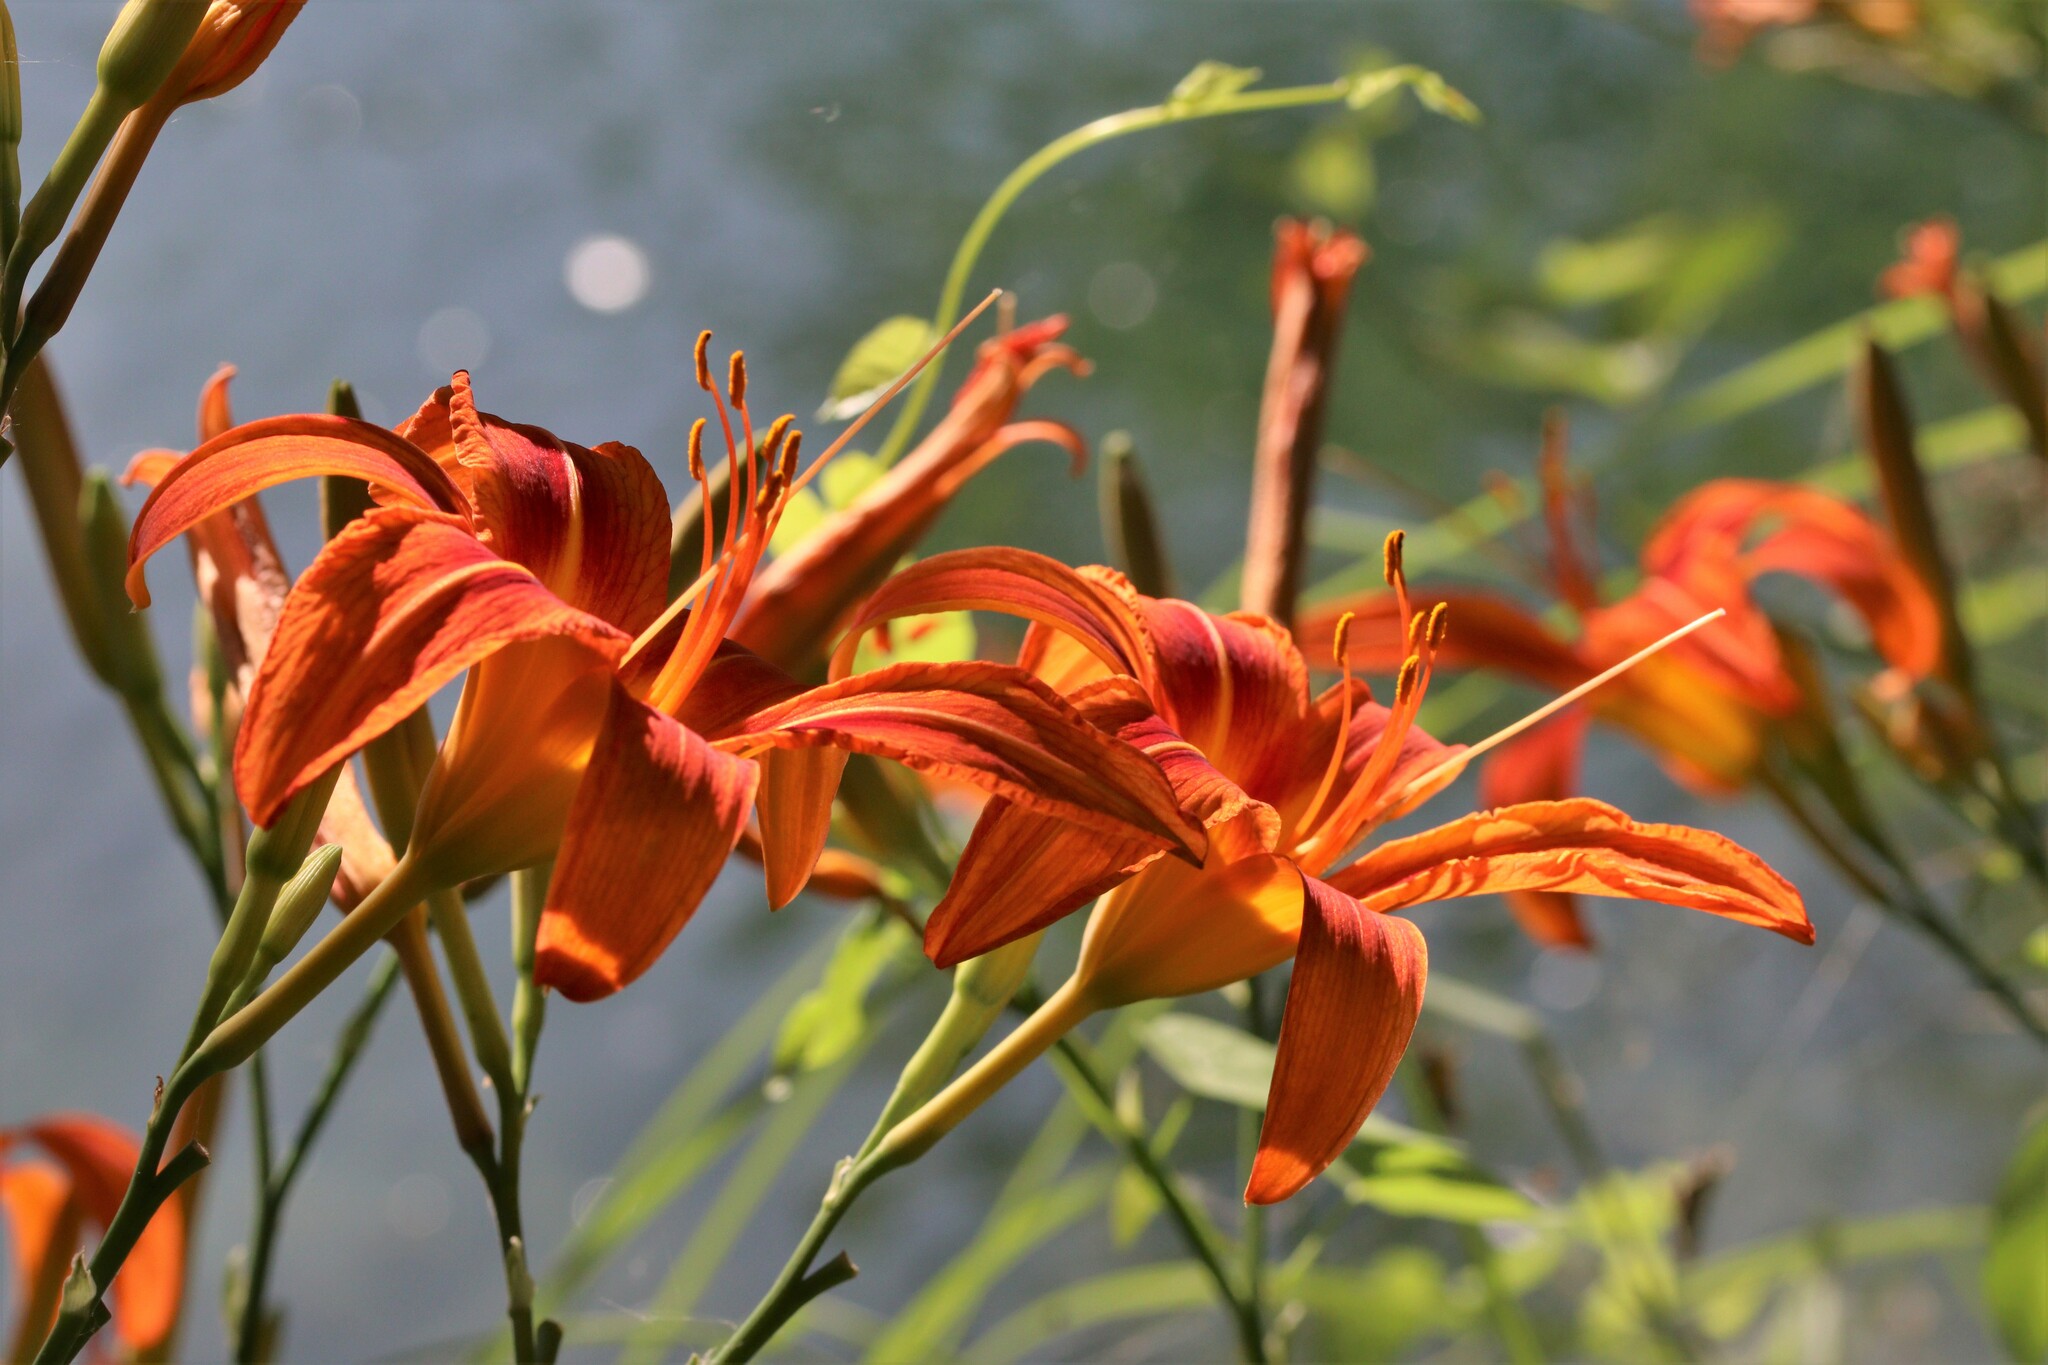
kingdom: Plantae
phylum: Tracheophyta
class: Liliopsida
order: Asparagales
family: Asphodelaceae
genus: Hemerocallis
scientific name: Hemerocallis fulva
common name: Orange day-lily
